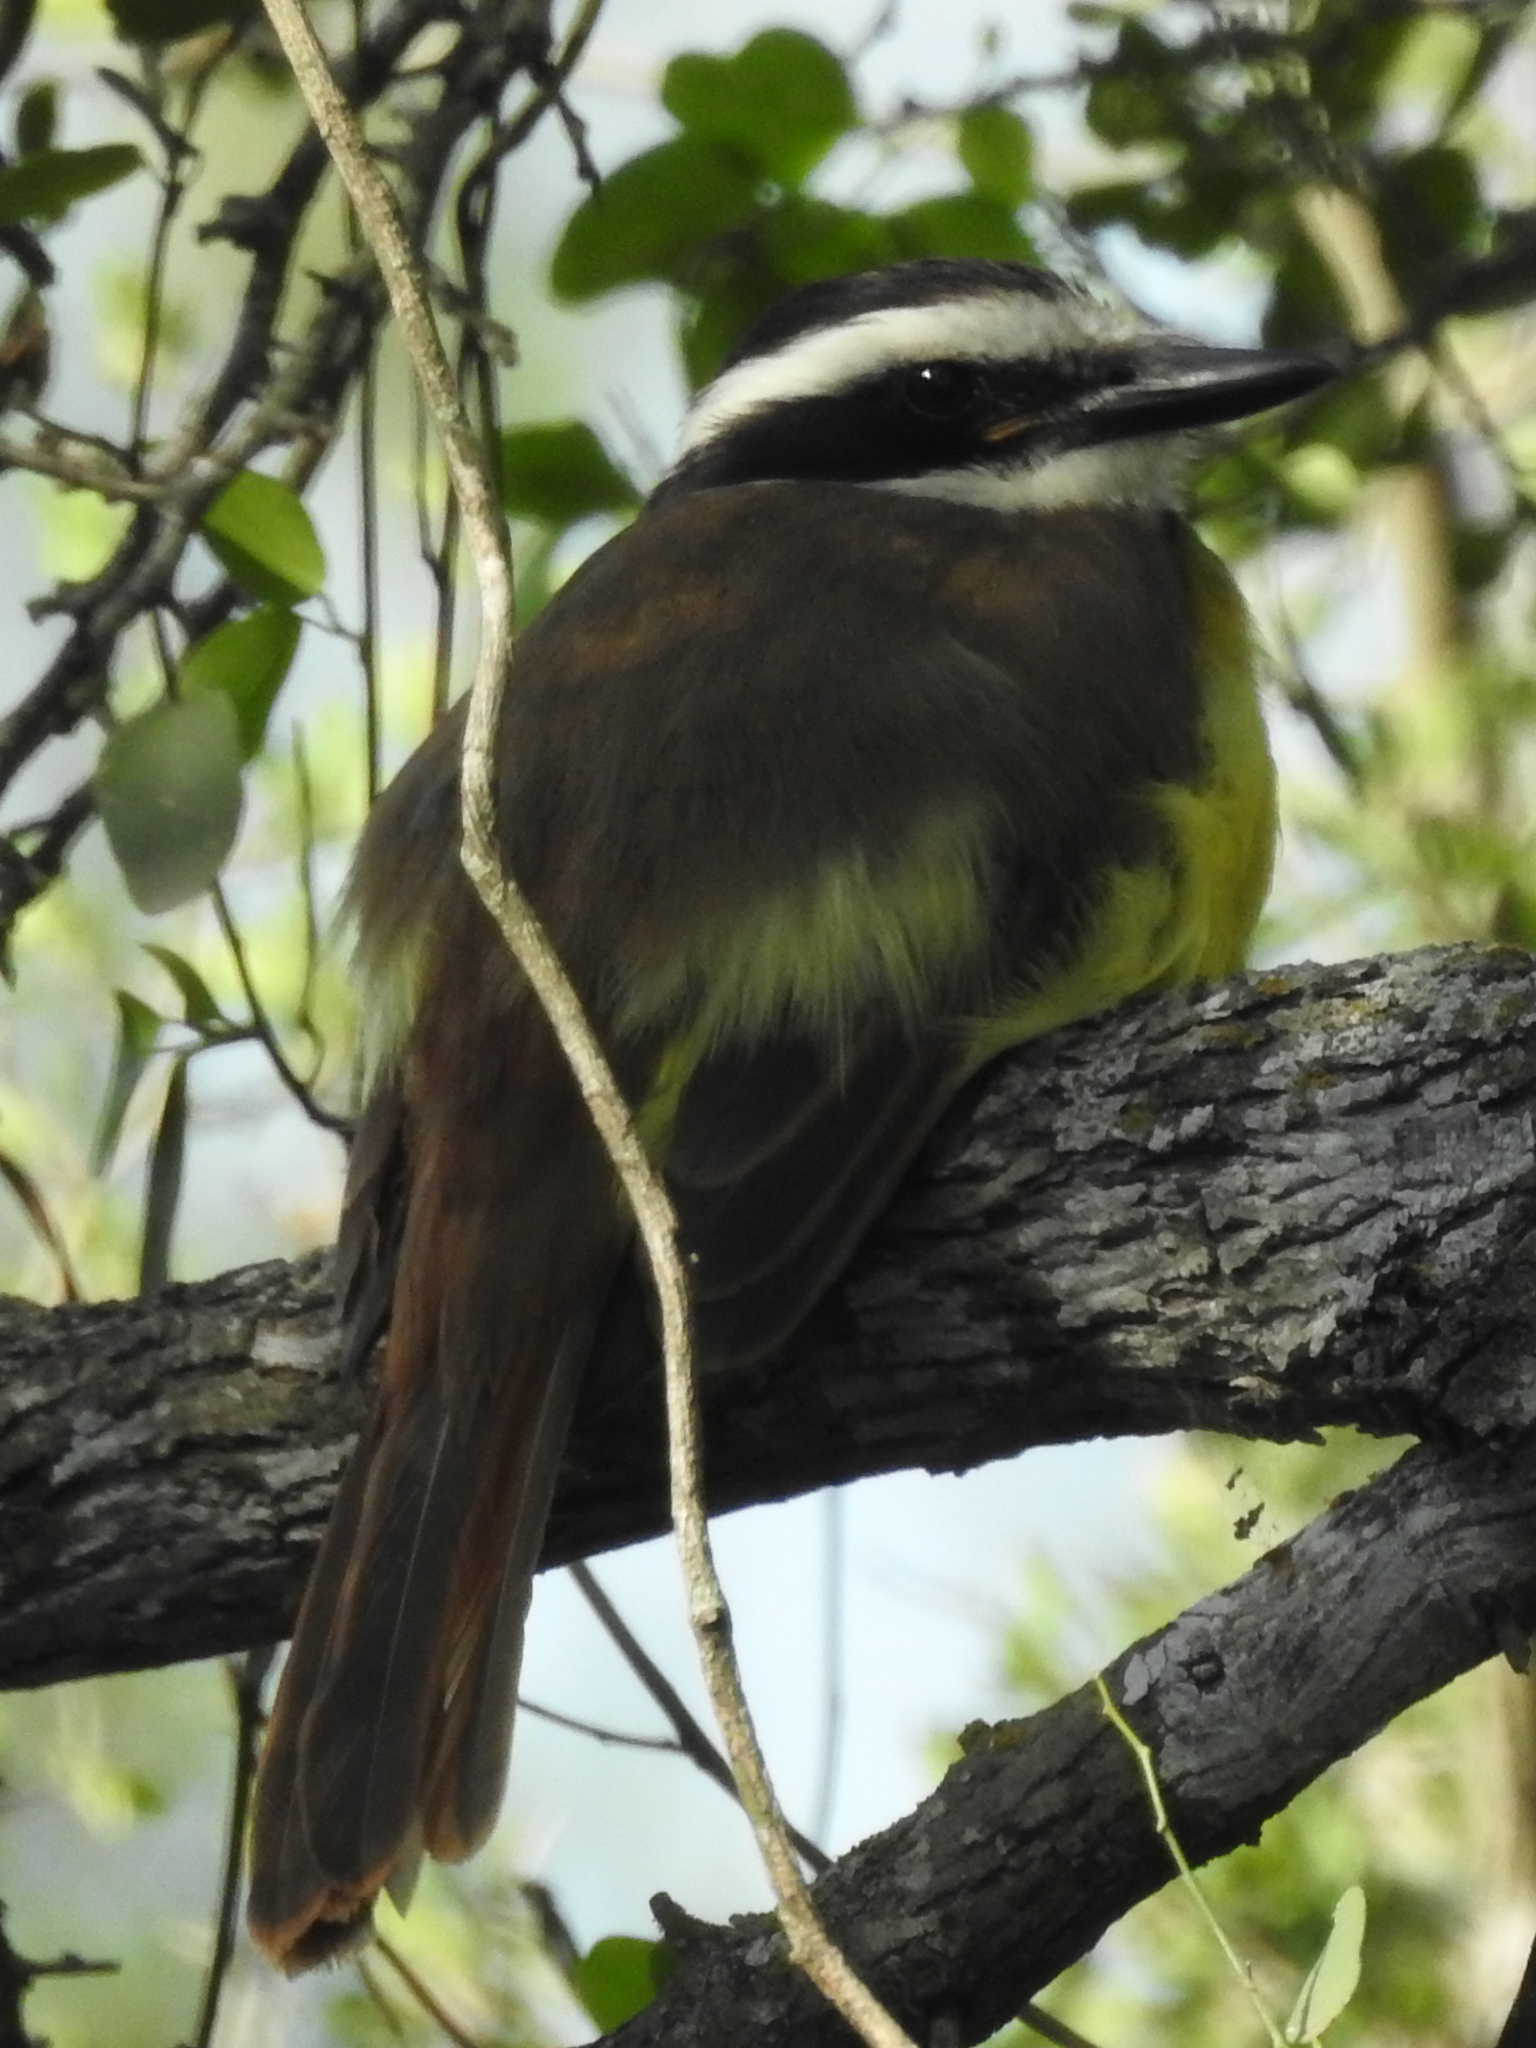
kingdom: Animalia
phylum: Chordata
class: Aves
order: Passeriformes
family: Tyrannidae
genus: Pitangus
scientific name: Pitangus sulphuratus
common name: Great kiskadee
